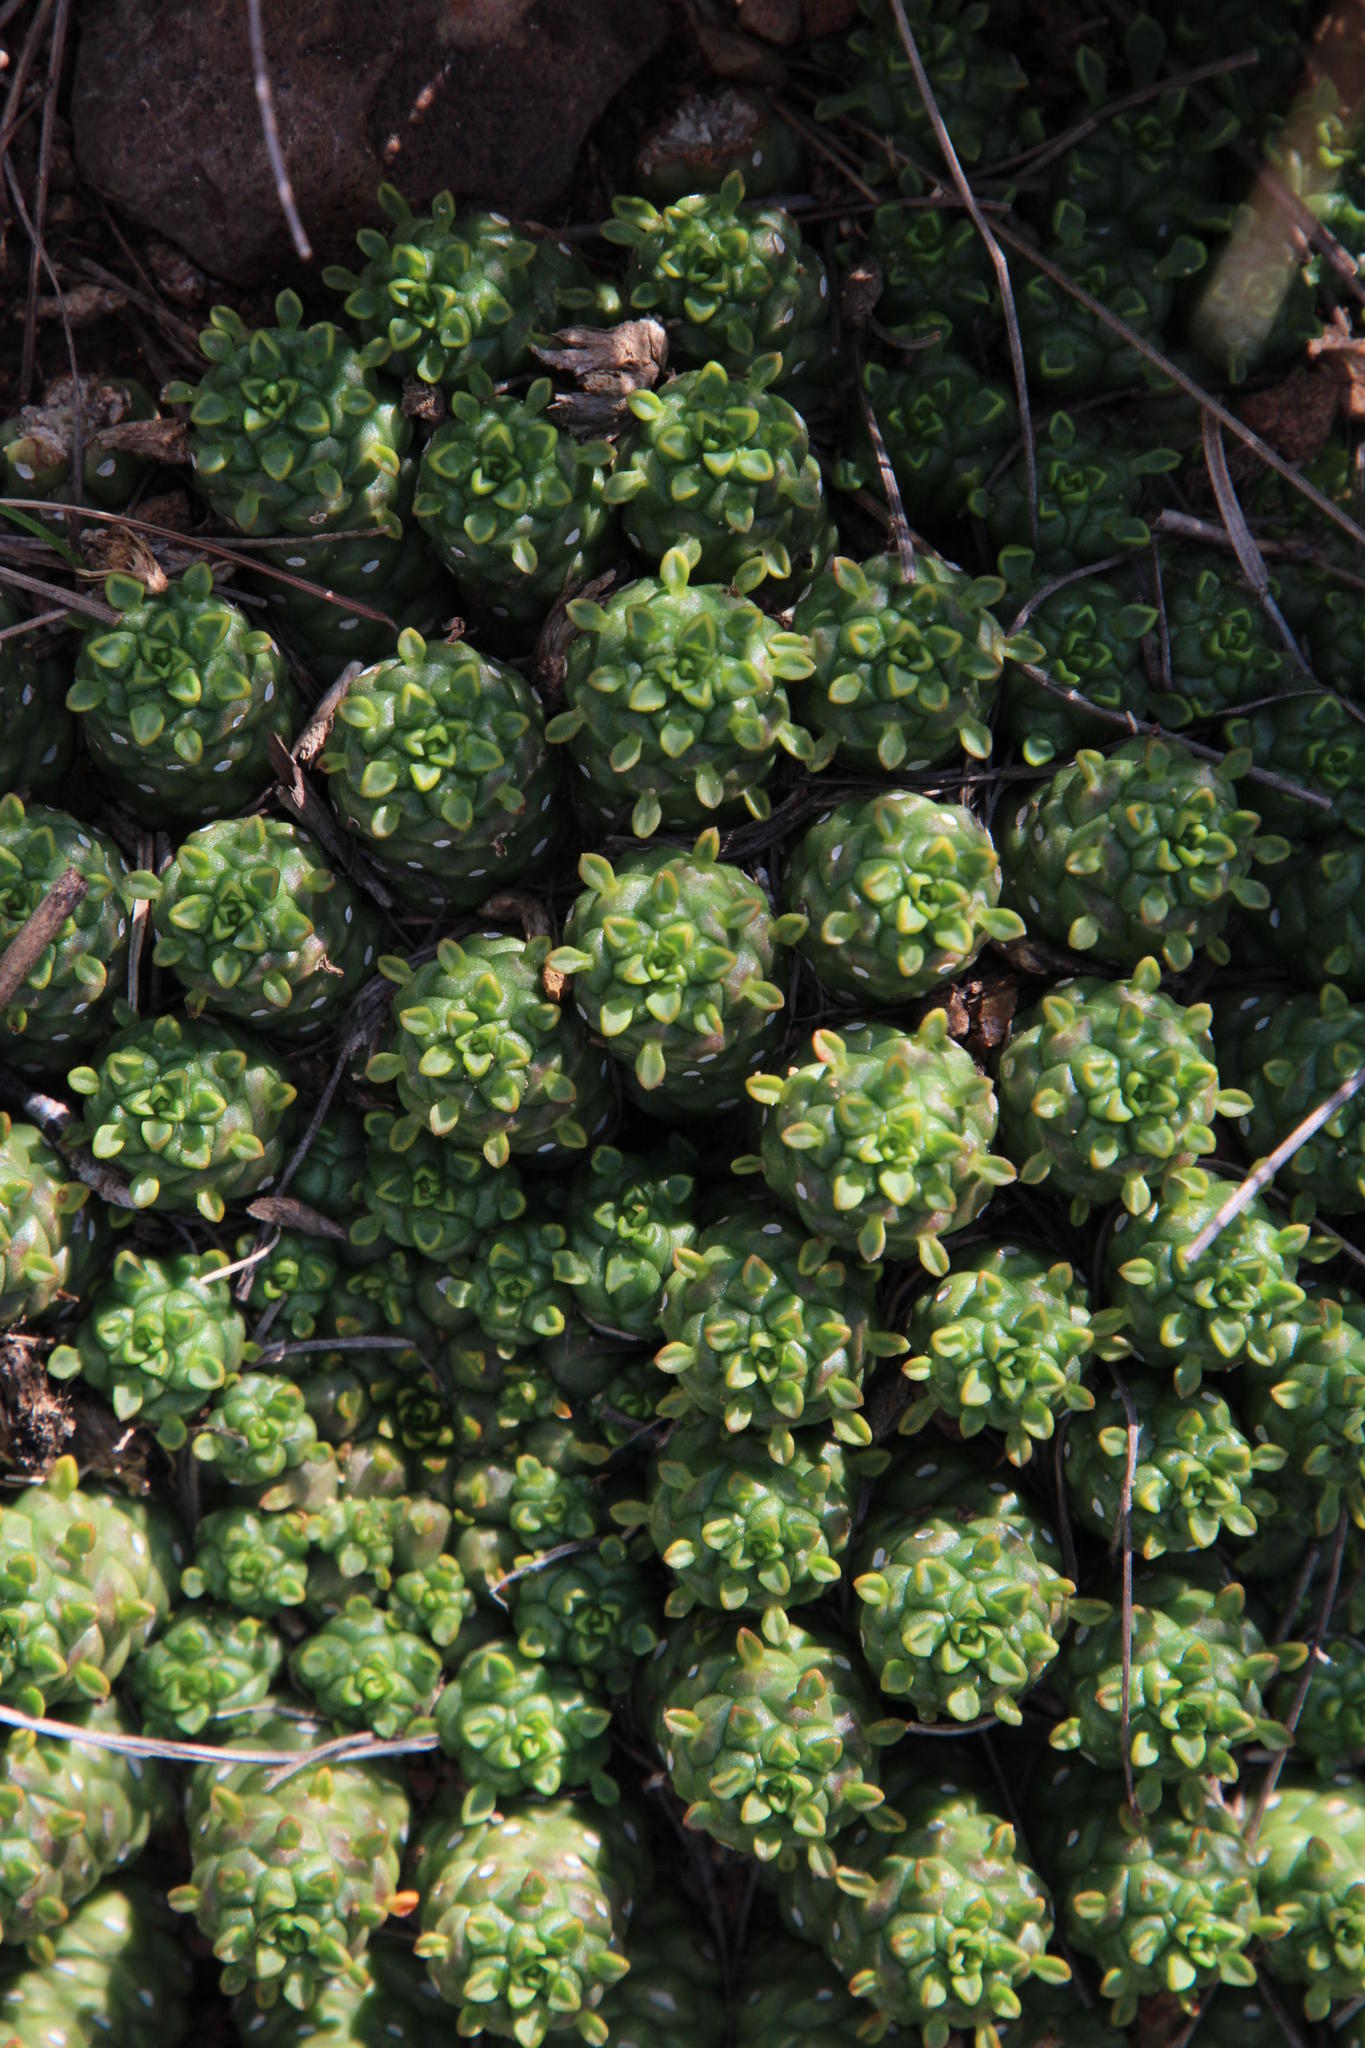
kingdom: Plantae
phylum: Tracheophyta
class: Magnoliopsida
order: Malpighiales
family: Euphorbiaceae
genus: Euphorbia
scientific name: Euphorbia clavarioides
